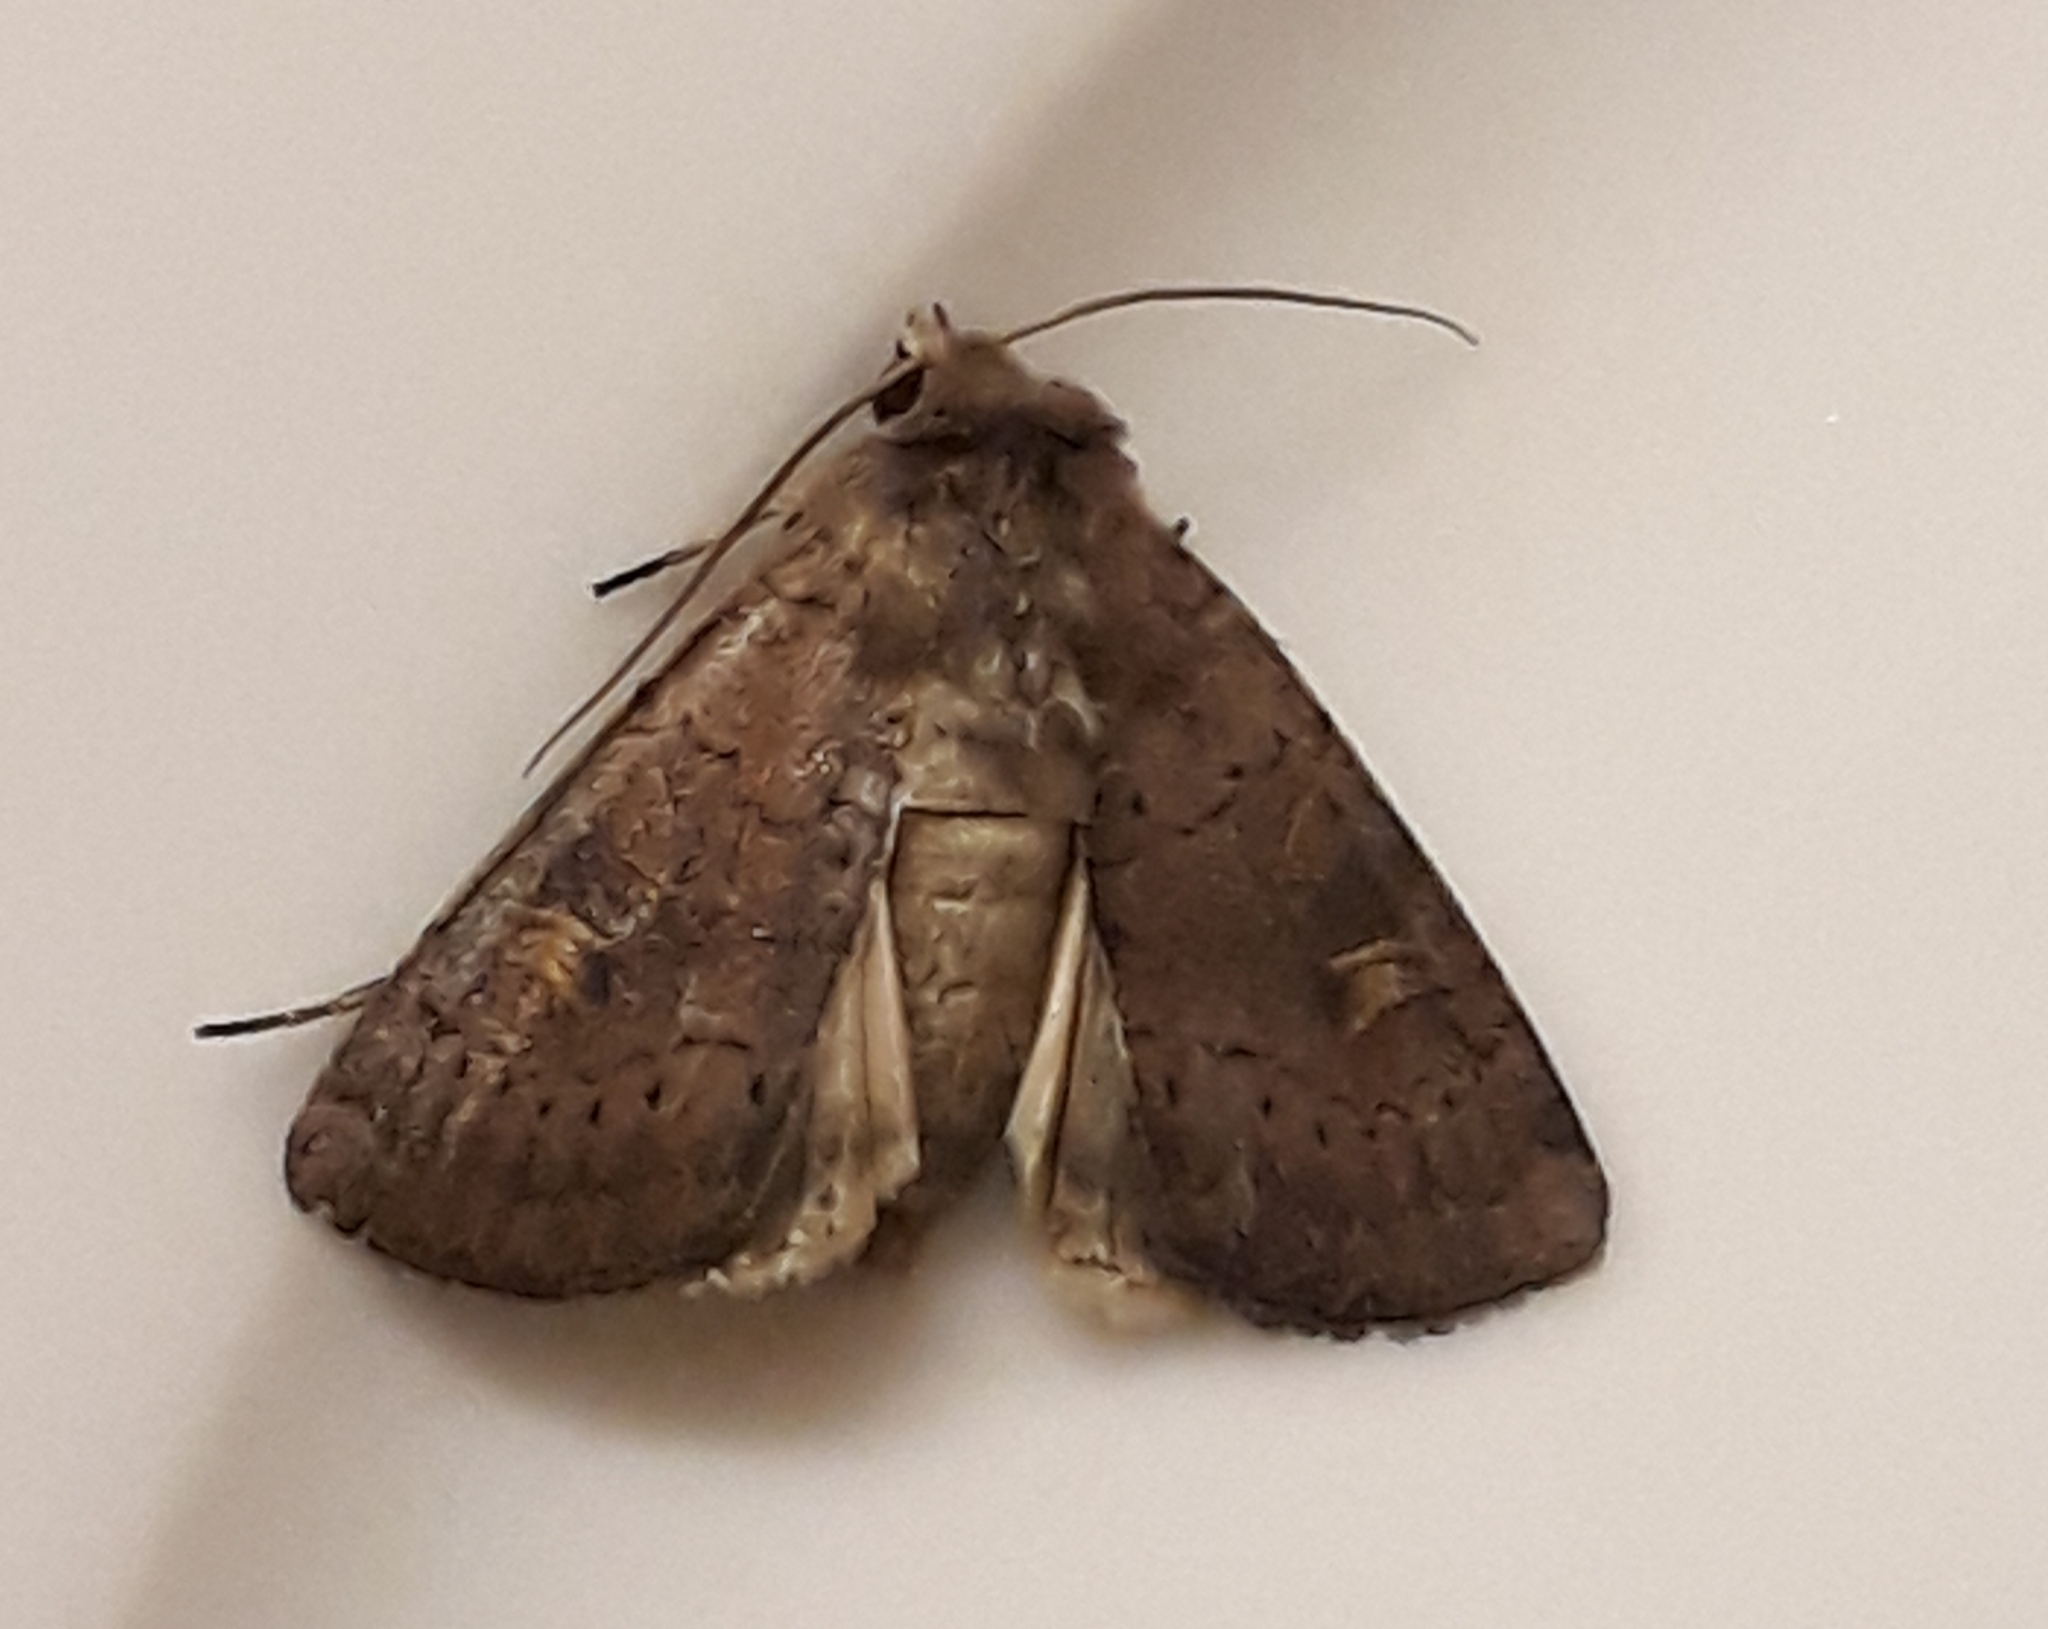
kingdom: Animalia
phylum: Arthropoda
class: Insecta
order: Lepidoptera
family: Noctuidae
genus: Xestia
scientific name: Xestia xanthographa
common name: Square-spot rustic
